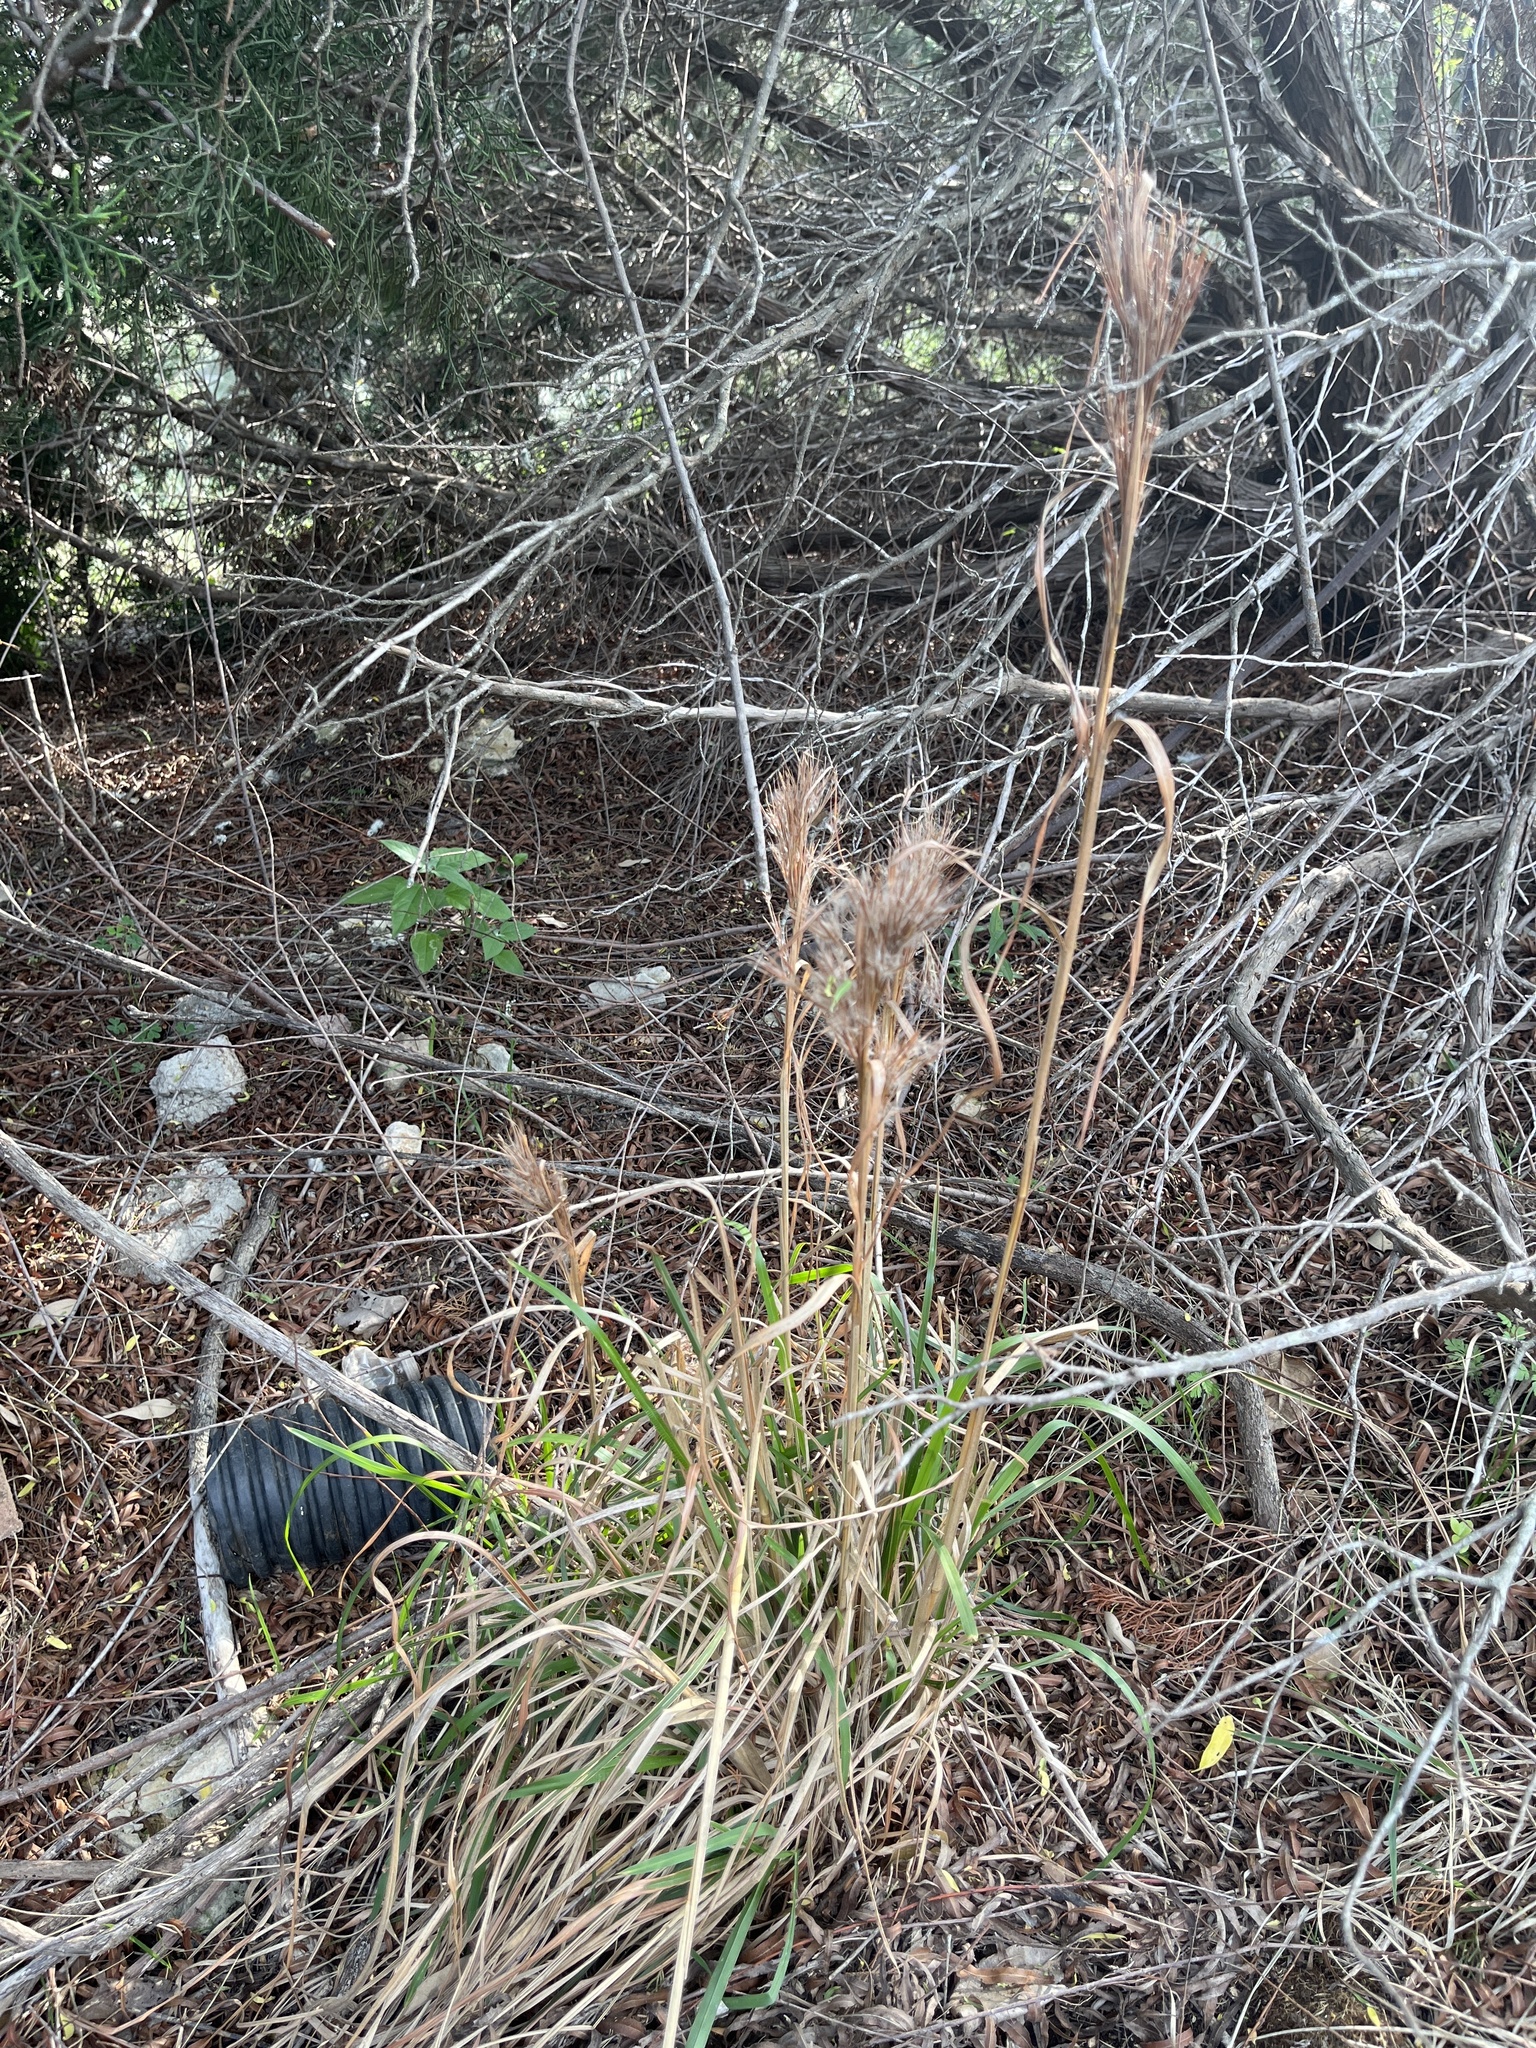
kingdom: Plantae
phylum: Tracheophyta
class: Liliopsida
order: Poales
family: Poaceae
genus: Andropogon
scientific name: Andropogon tenuispatheus
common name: Bushy bluestem
